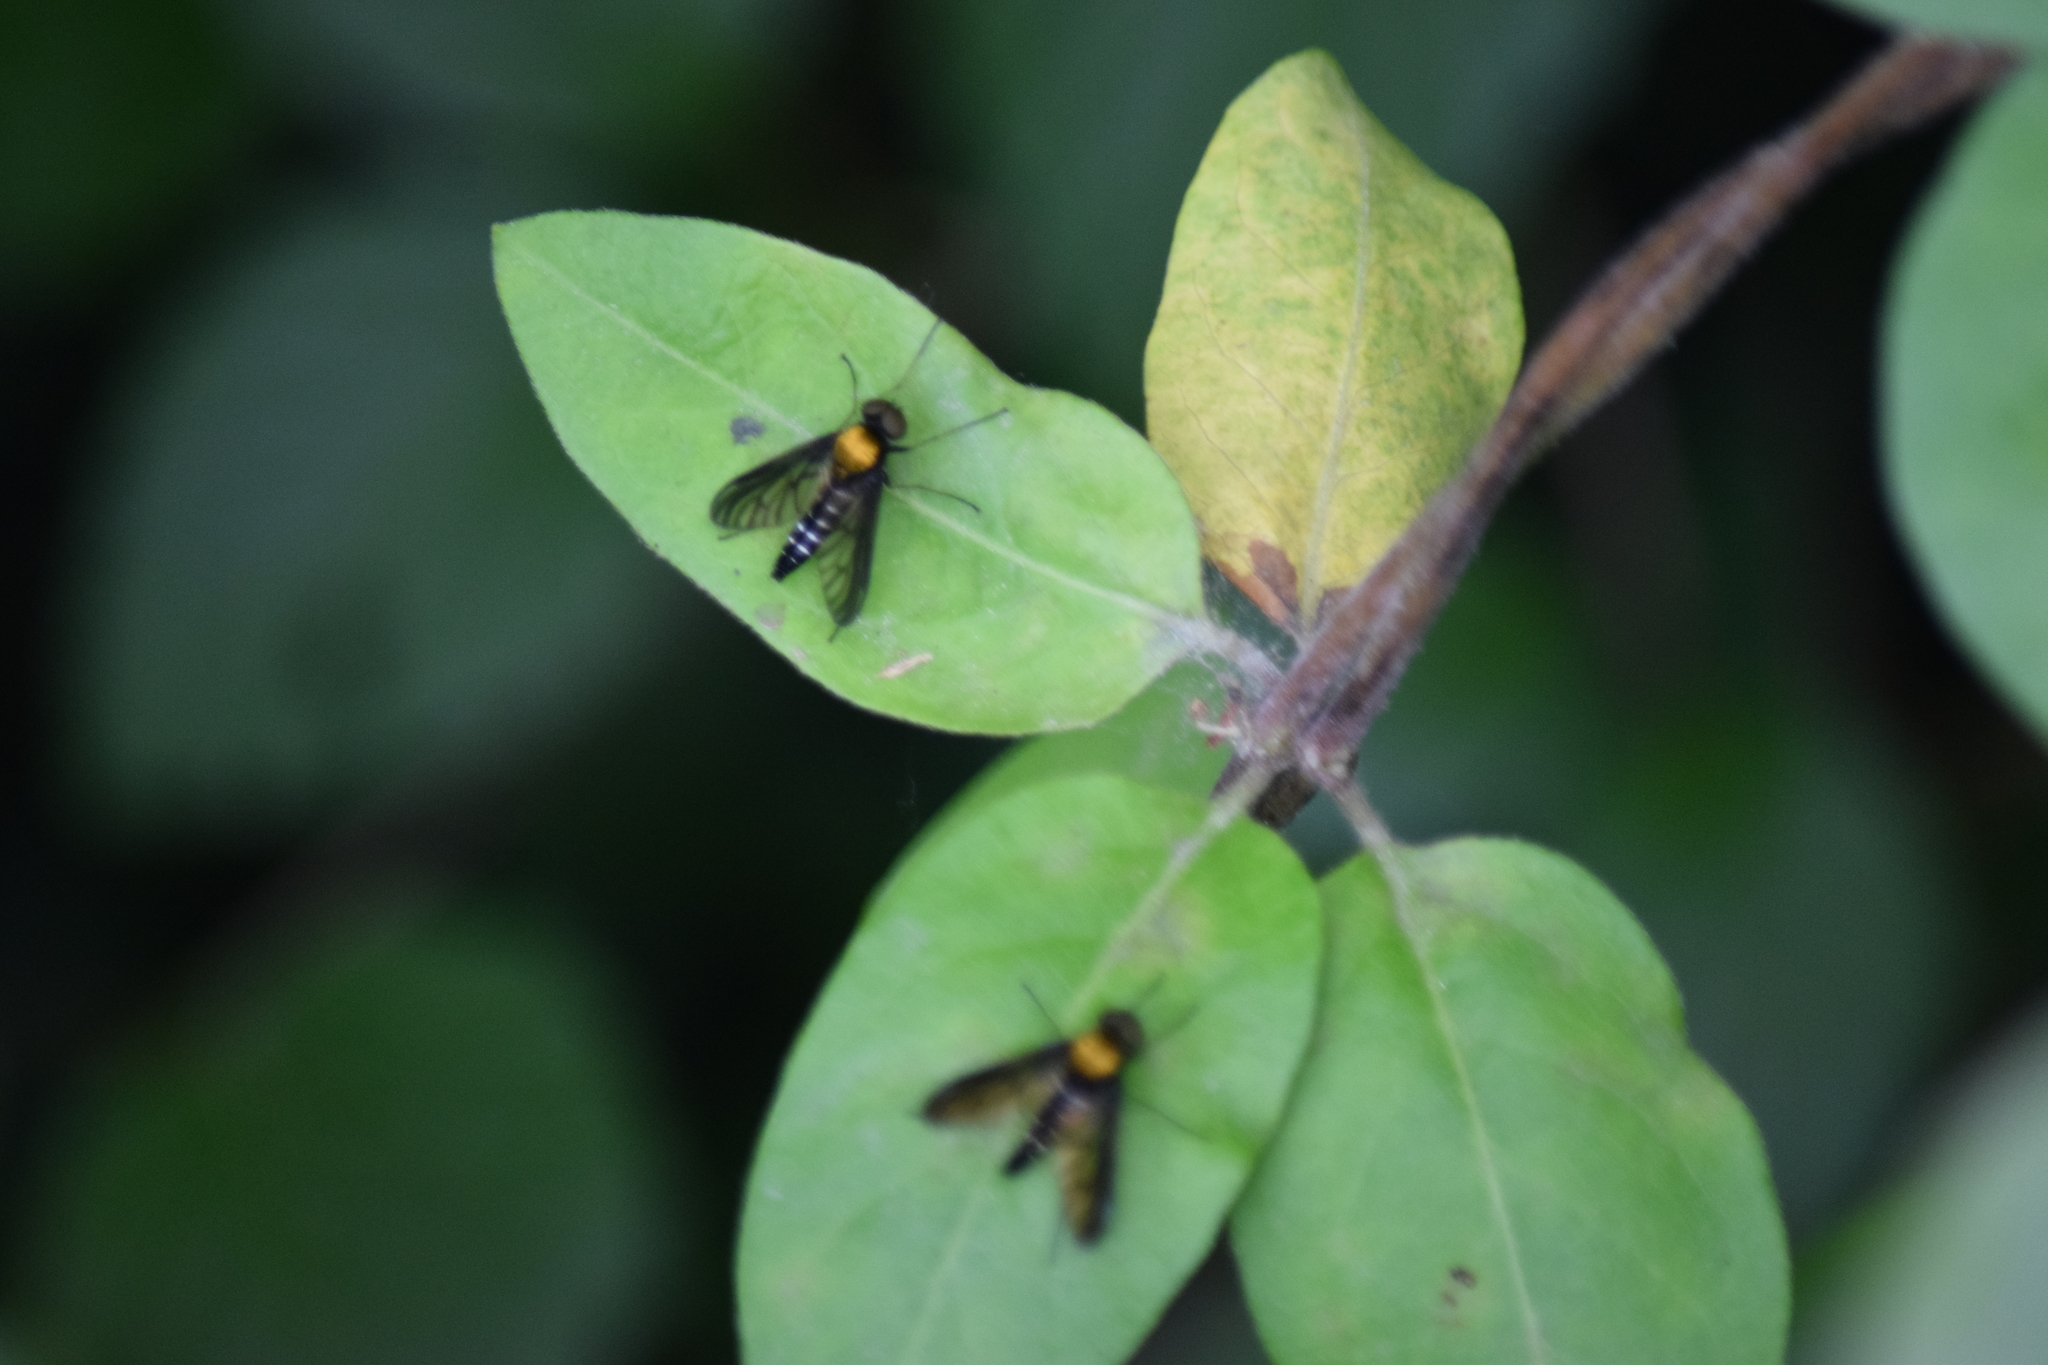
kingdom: Animalia
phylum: Arthropoda
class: Insecta
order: Diptera
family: Rhagionidae
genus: Chrysopilus
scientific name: Chrysopilus thoracicus
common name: Golden-backed snipe fly
